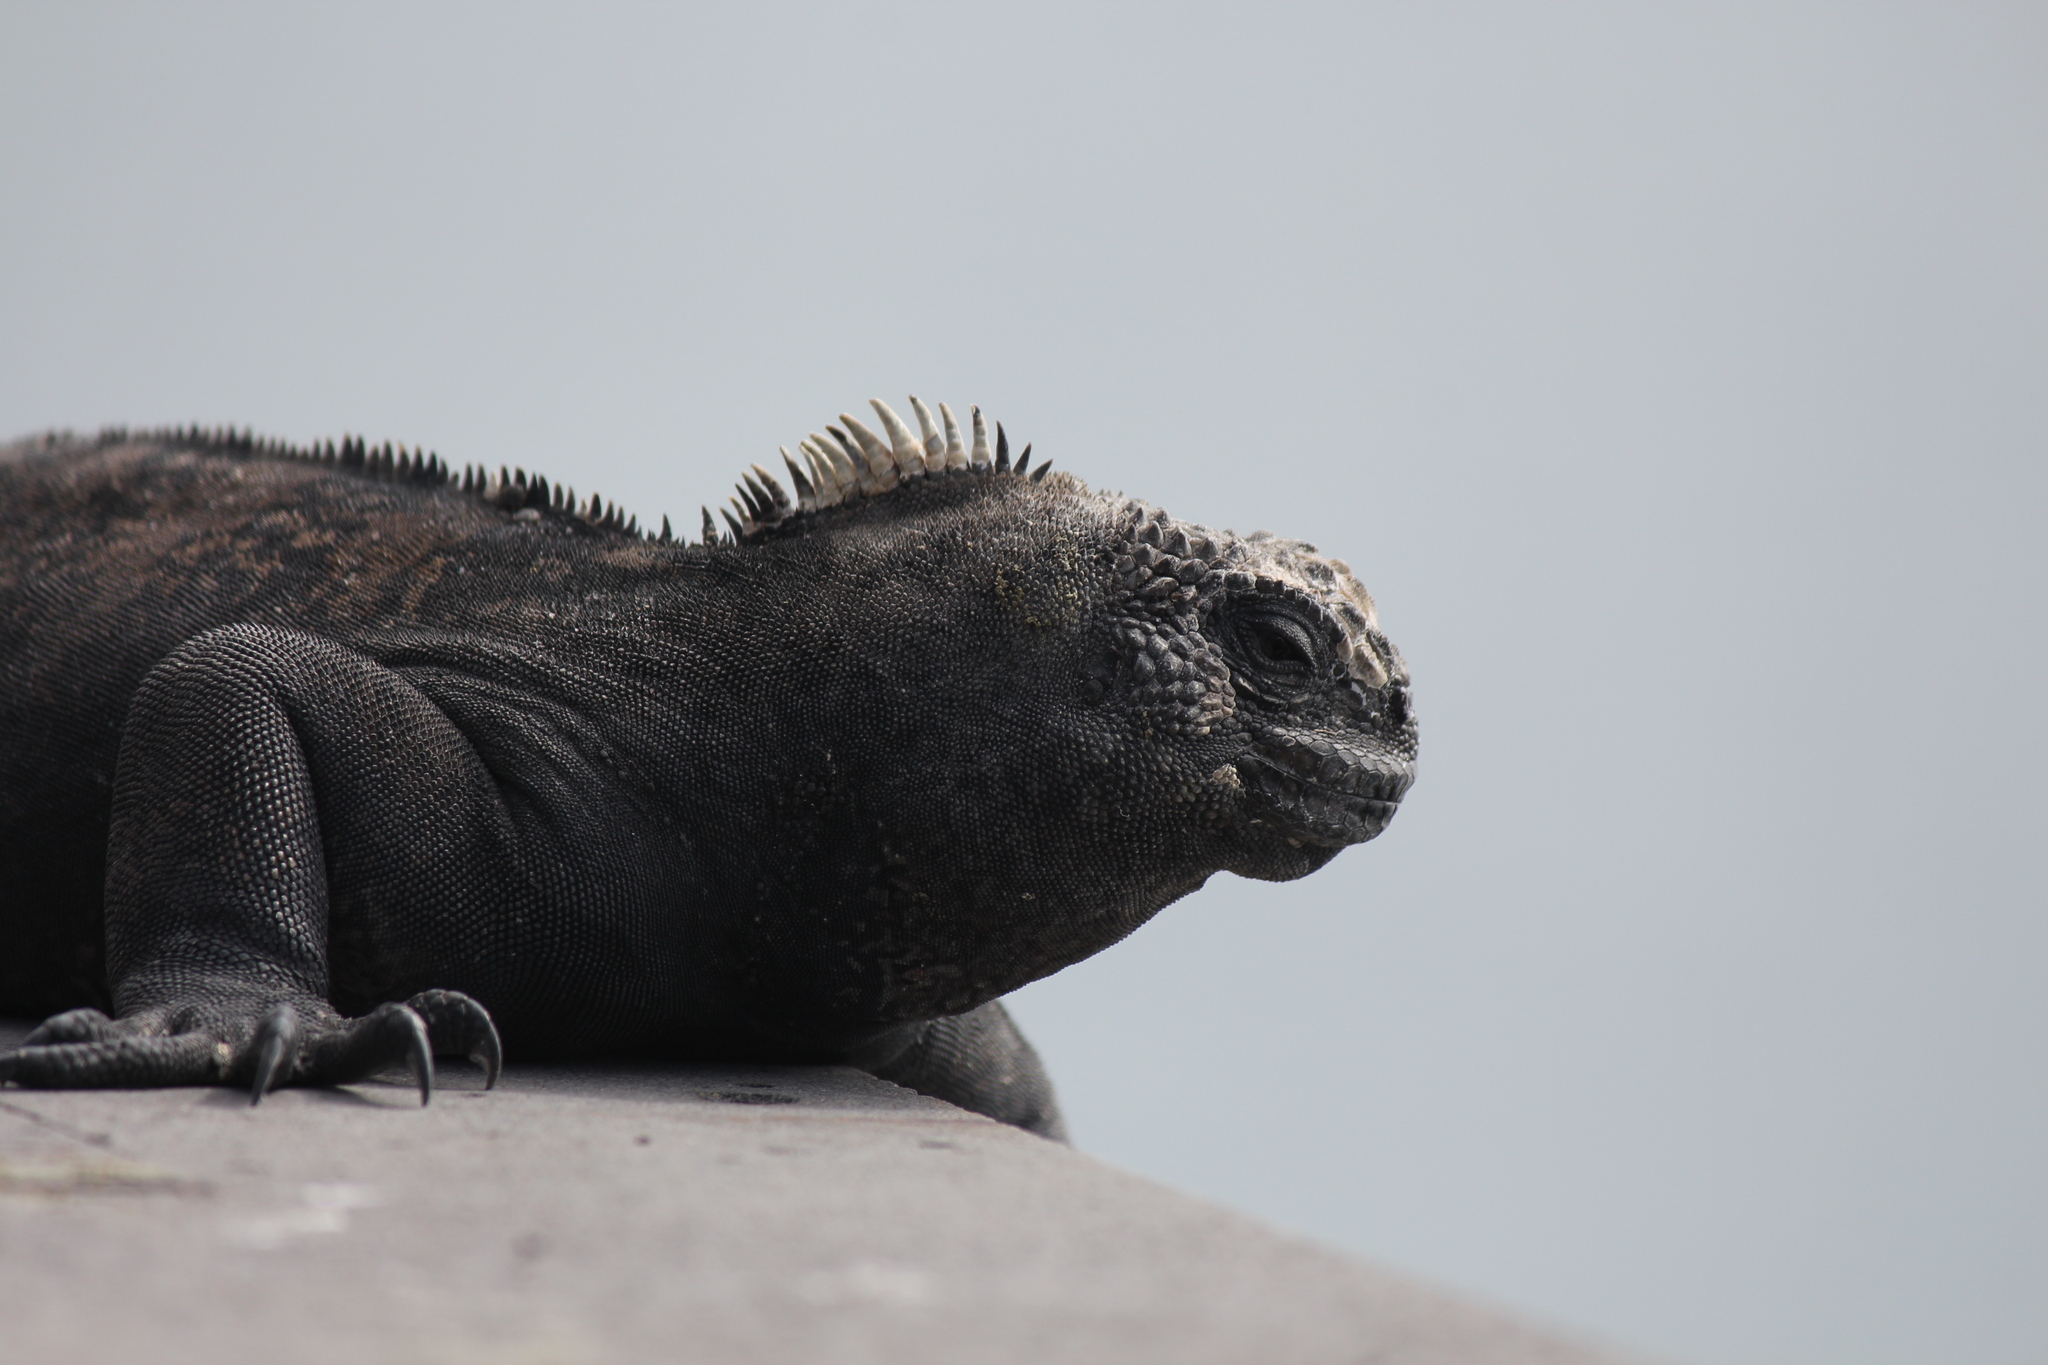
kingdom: Animalia
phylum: Chordata
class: Squamata
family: Iguanidae
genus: Amblyrhynchus
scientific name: Amblyrhynchus cristatus
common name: Marine iguana
